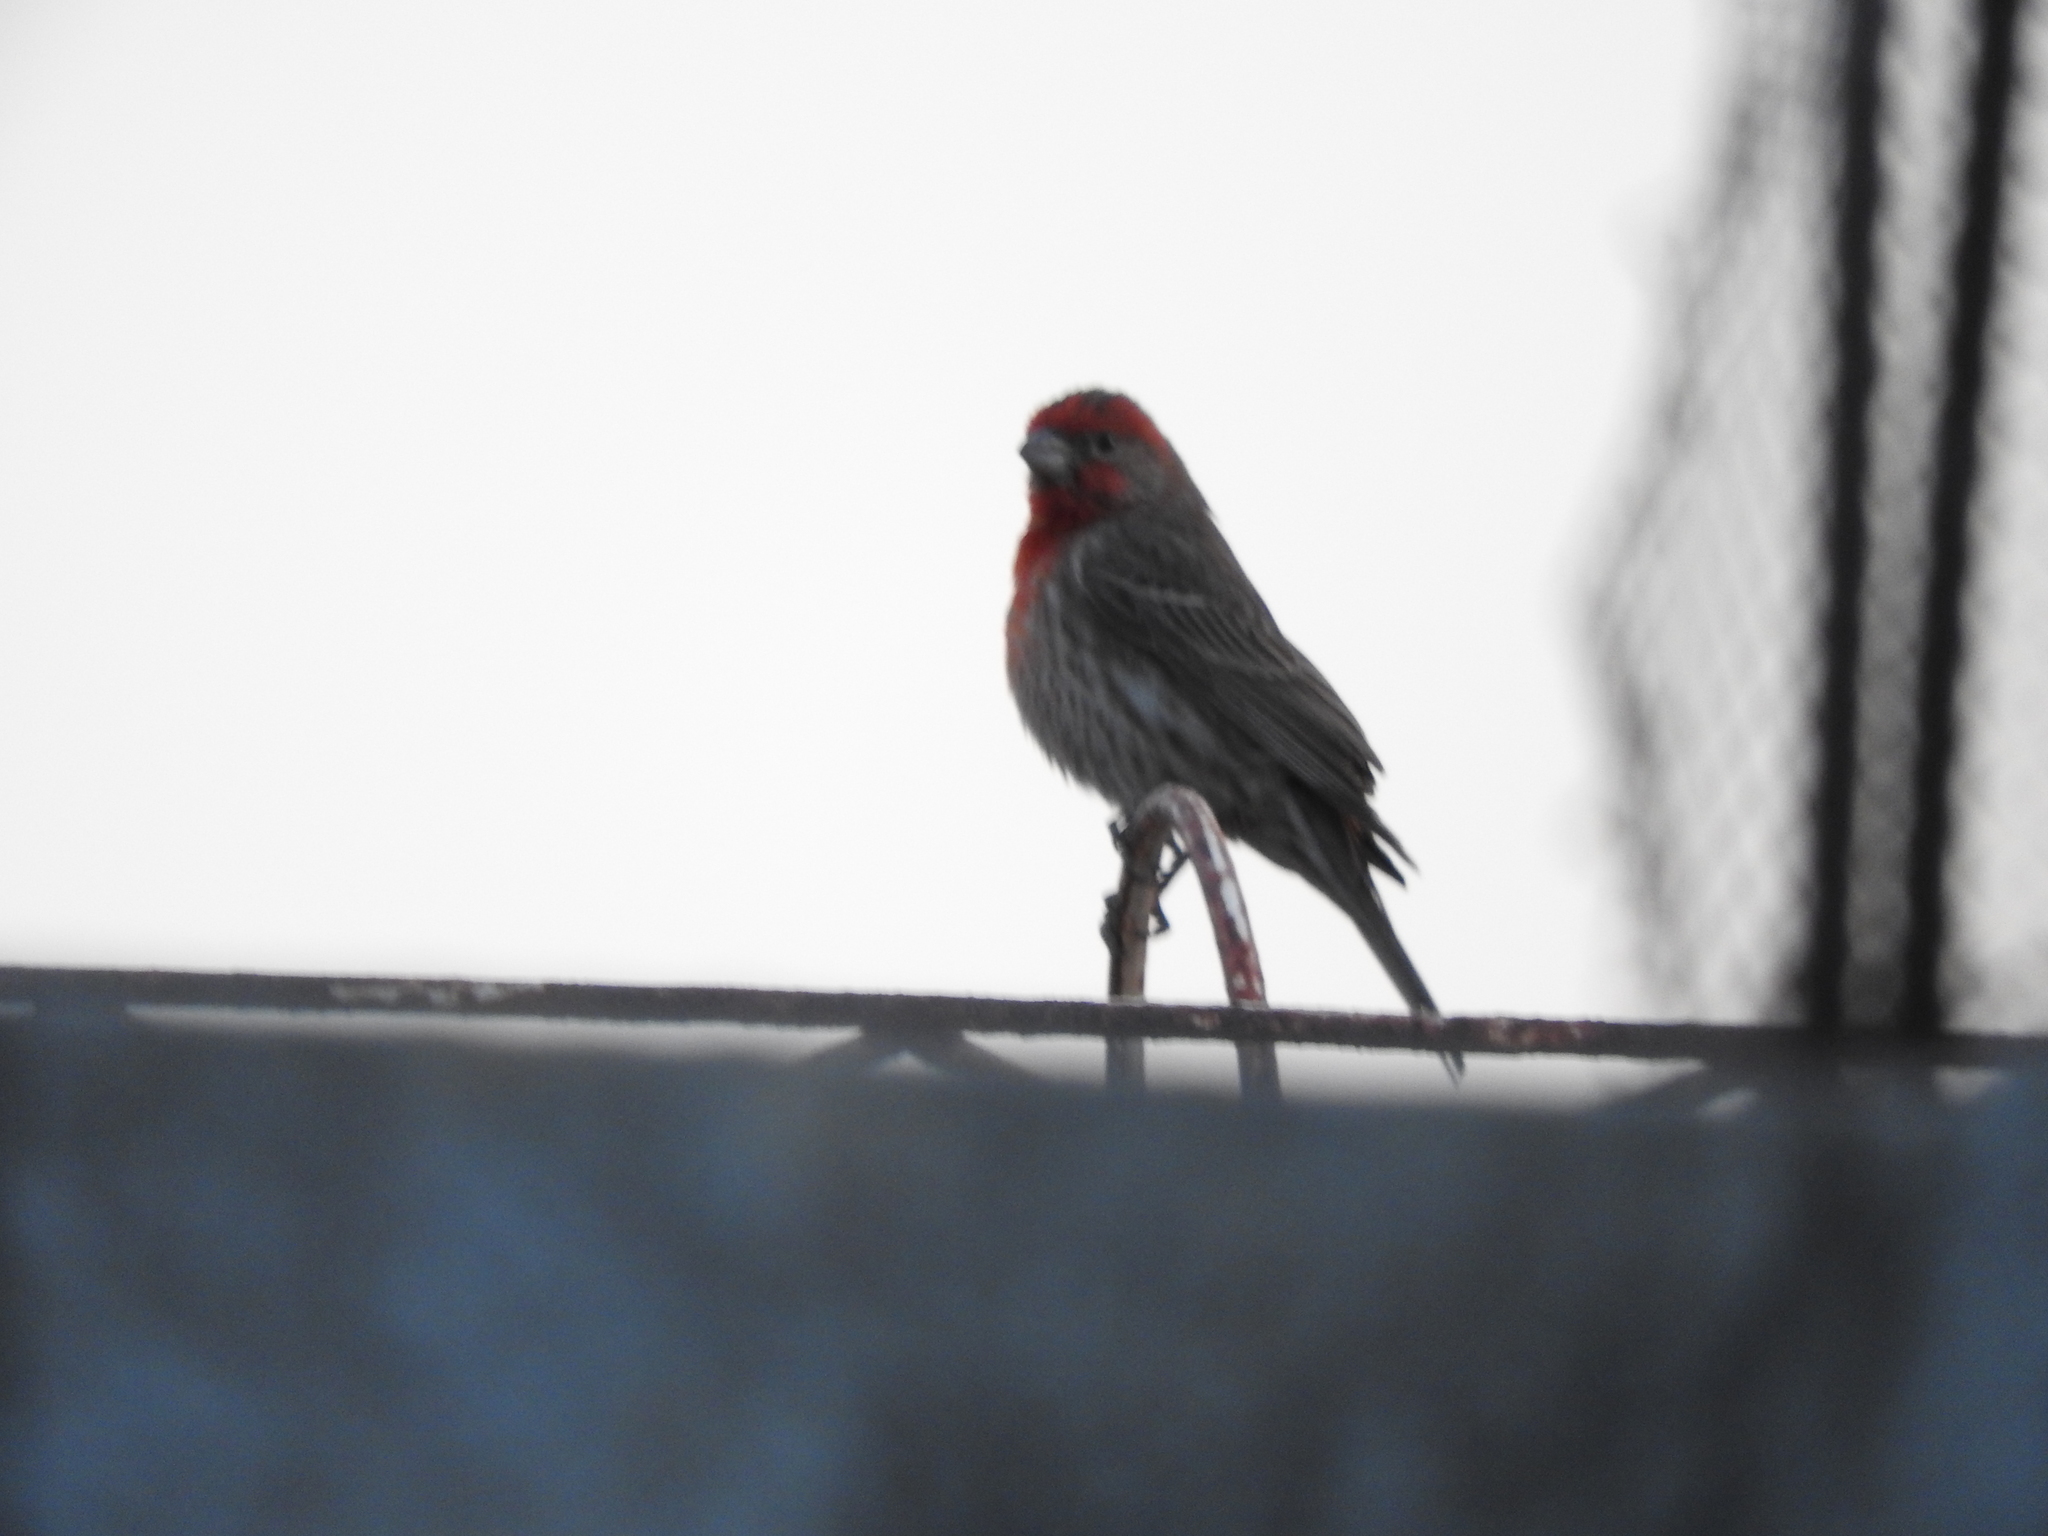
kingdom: Animalia
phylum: Chordata
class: Aves
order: Passeriformes
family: Fringillidae
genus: Haemorhous
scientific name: Haemorhous mexicanus
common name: House finch
